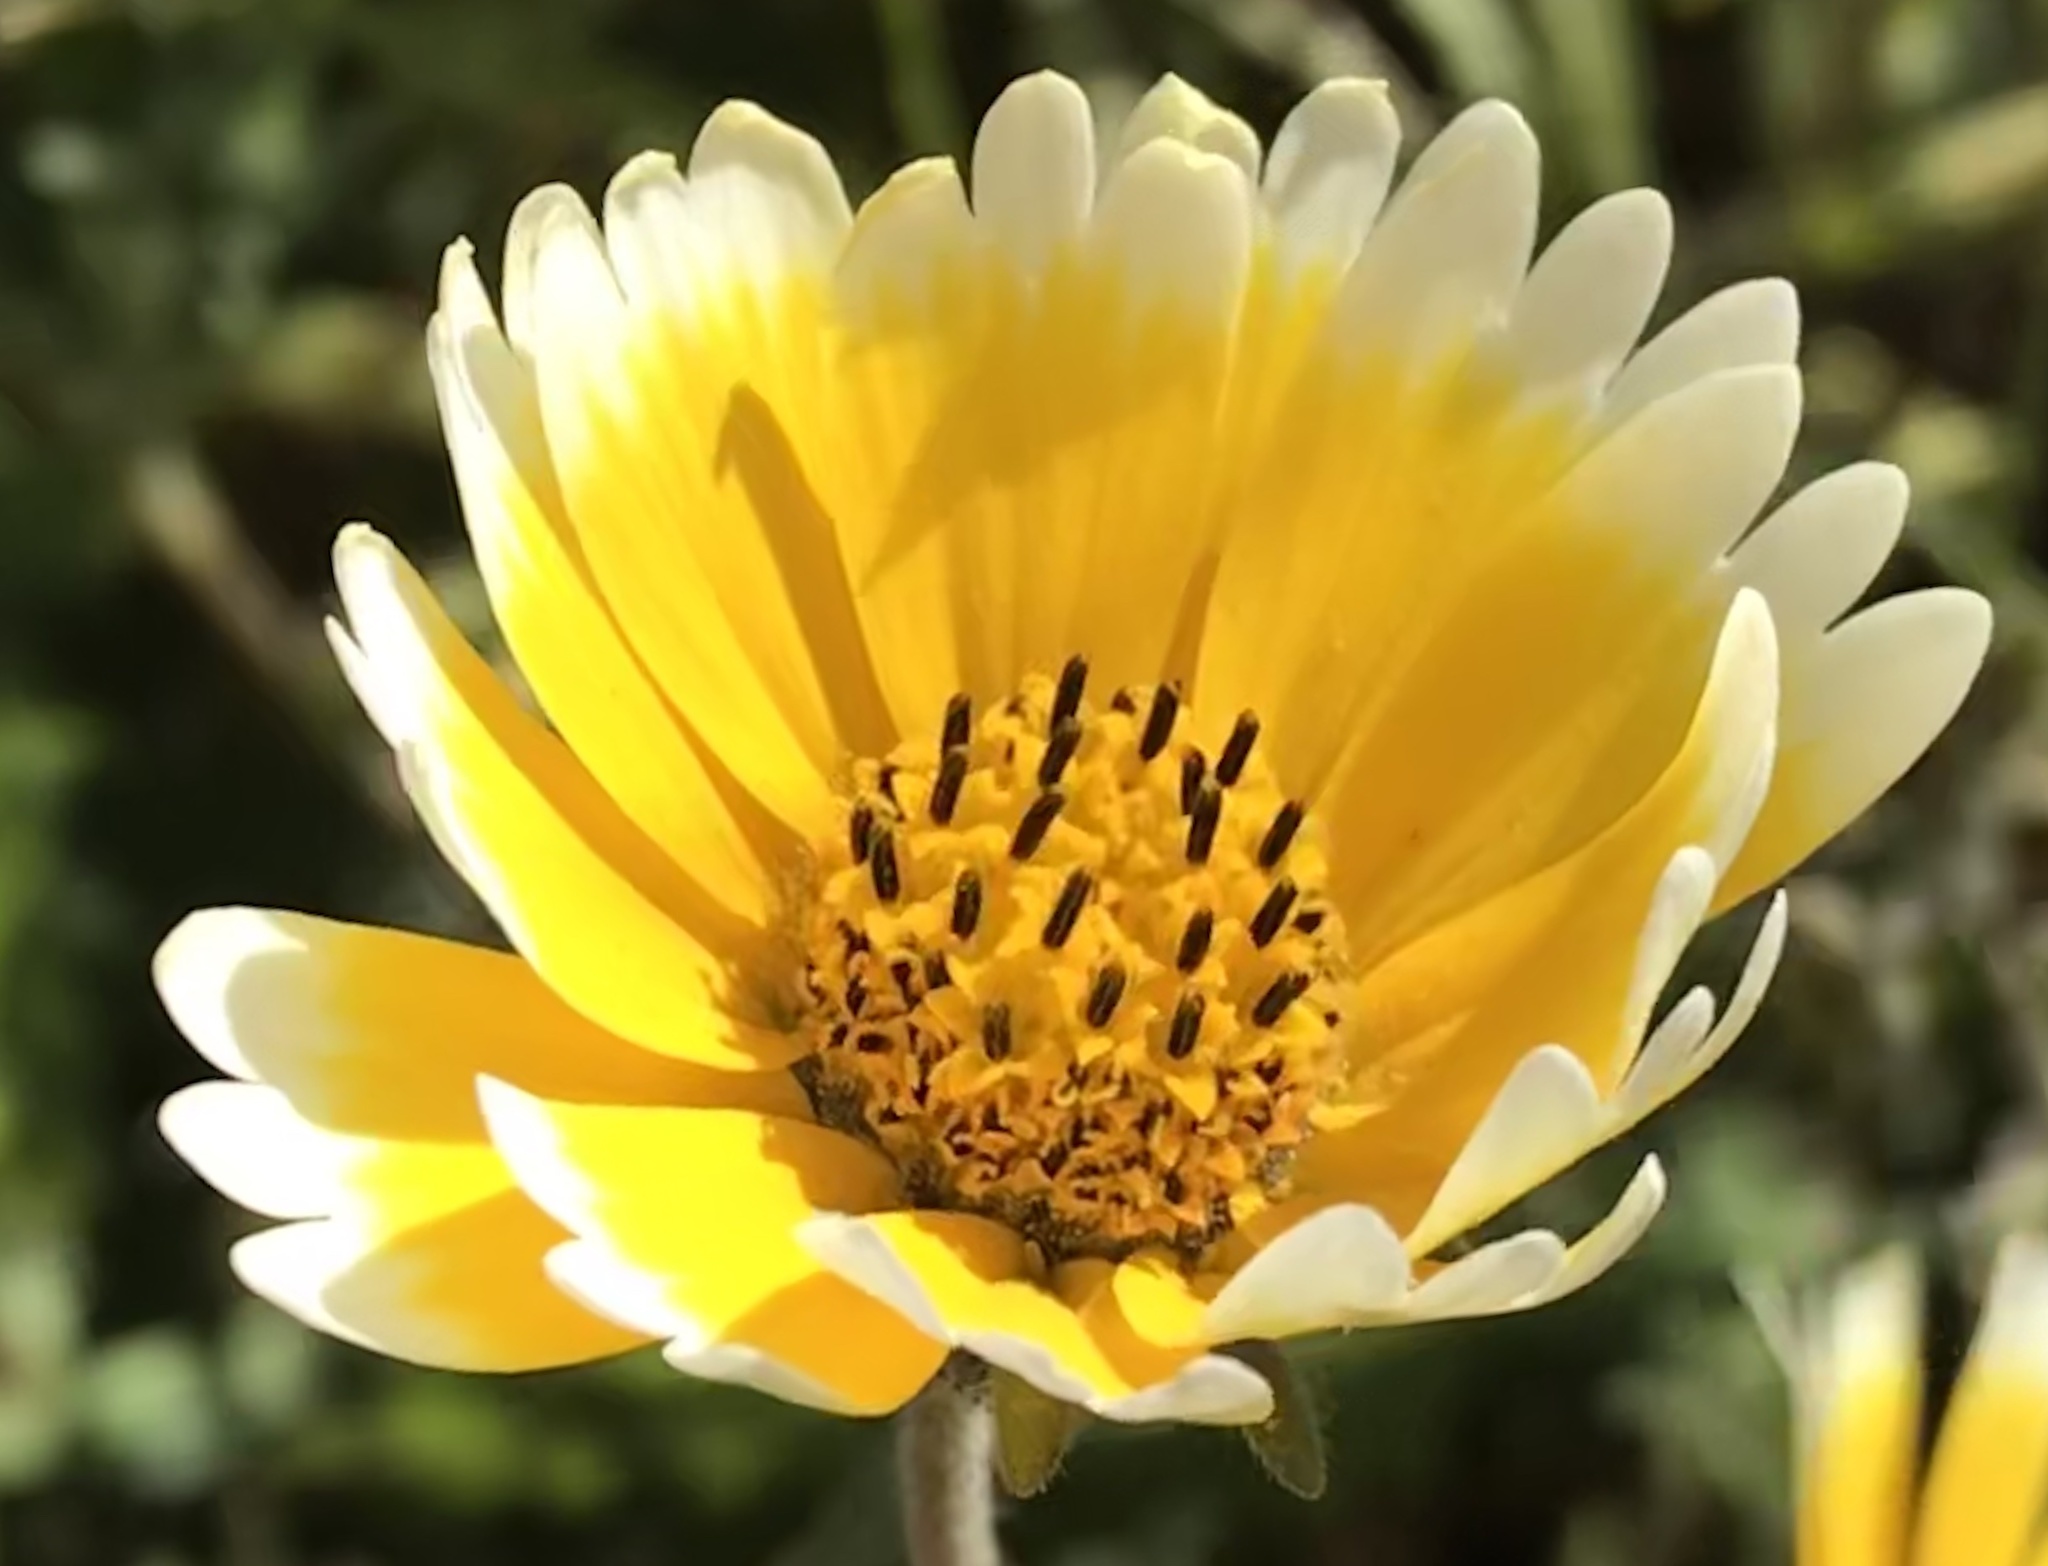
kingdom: Plantae
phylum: Tracheophyta
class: Magnoliopsida
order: Asterales
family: Asteraceae
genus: Layia
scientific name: Layia platyglossa
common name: Tidy-tips
